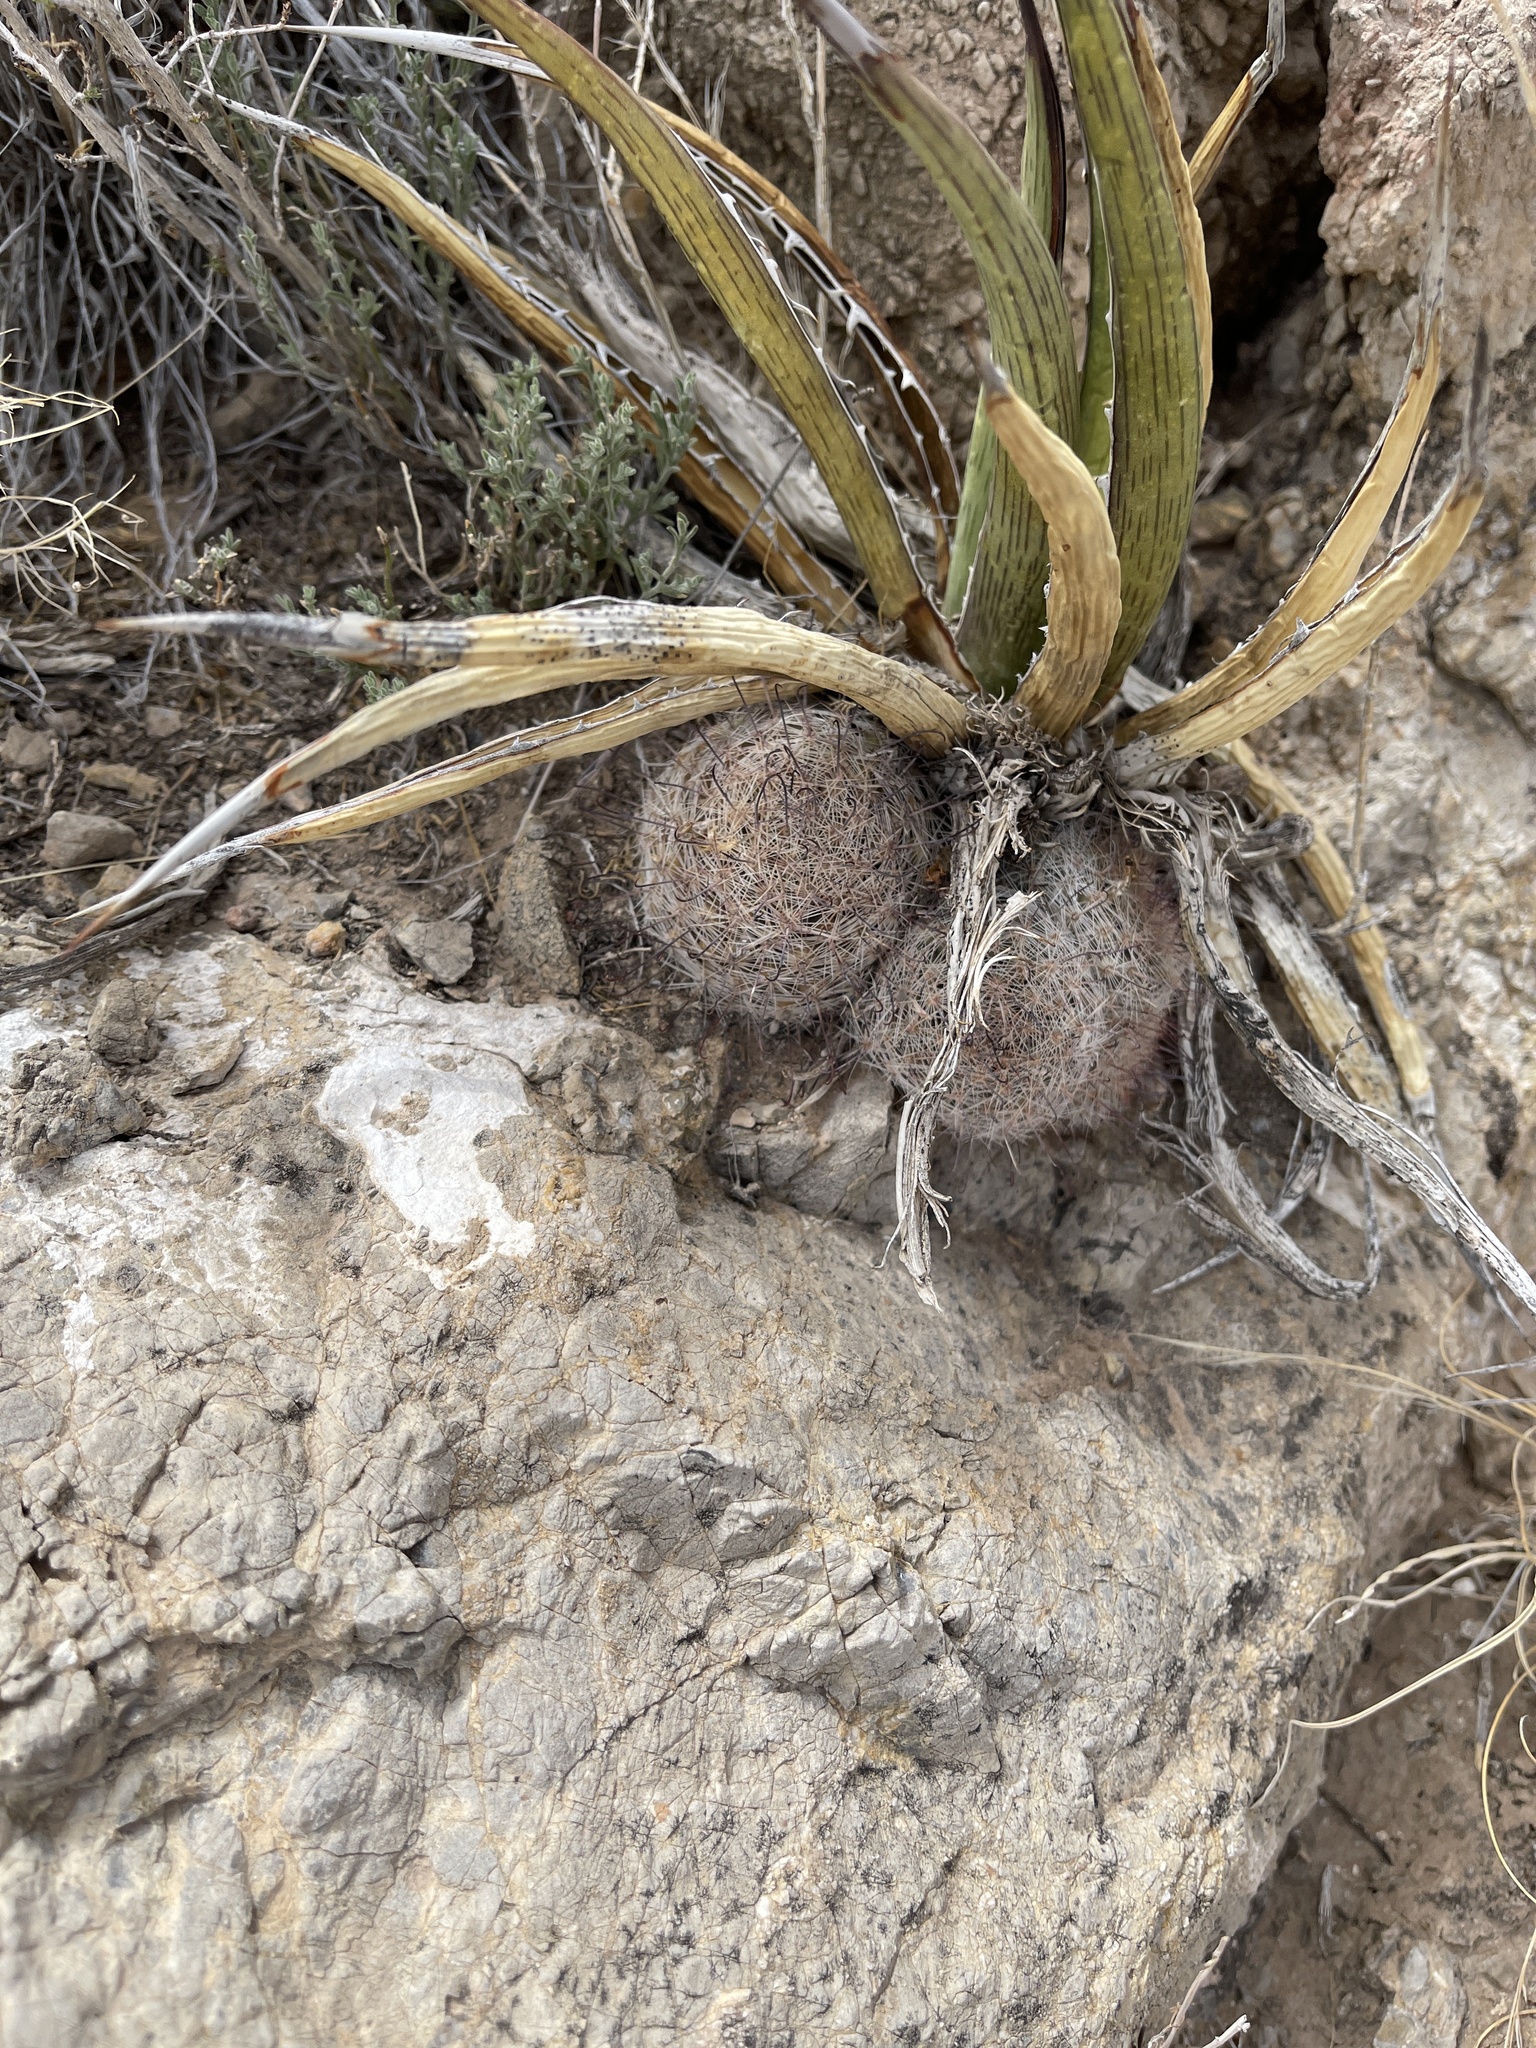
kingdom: Plantae
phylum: Tracheophyta
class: Magnoliopsida
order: Caryophyllales
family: Cactaceae
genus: Cochemiea
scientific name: Cochemiea grahamii
